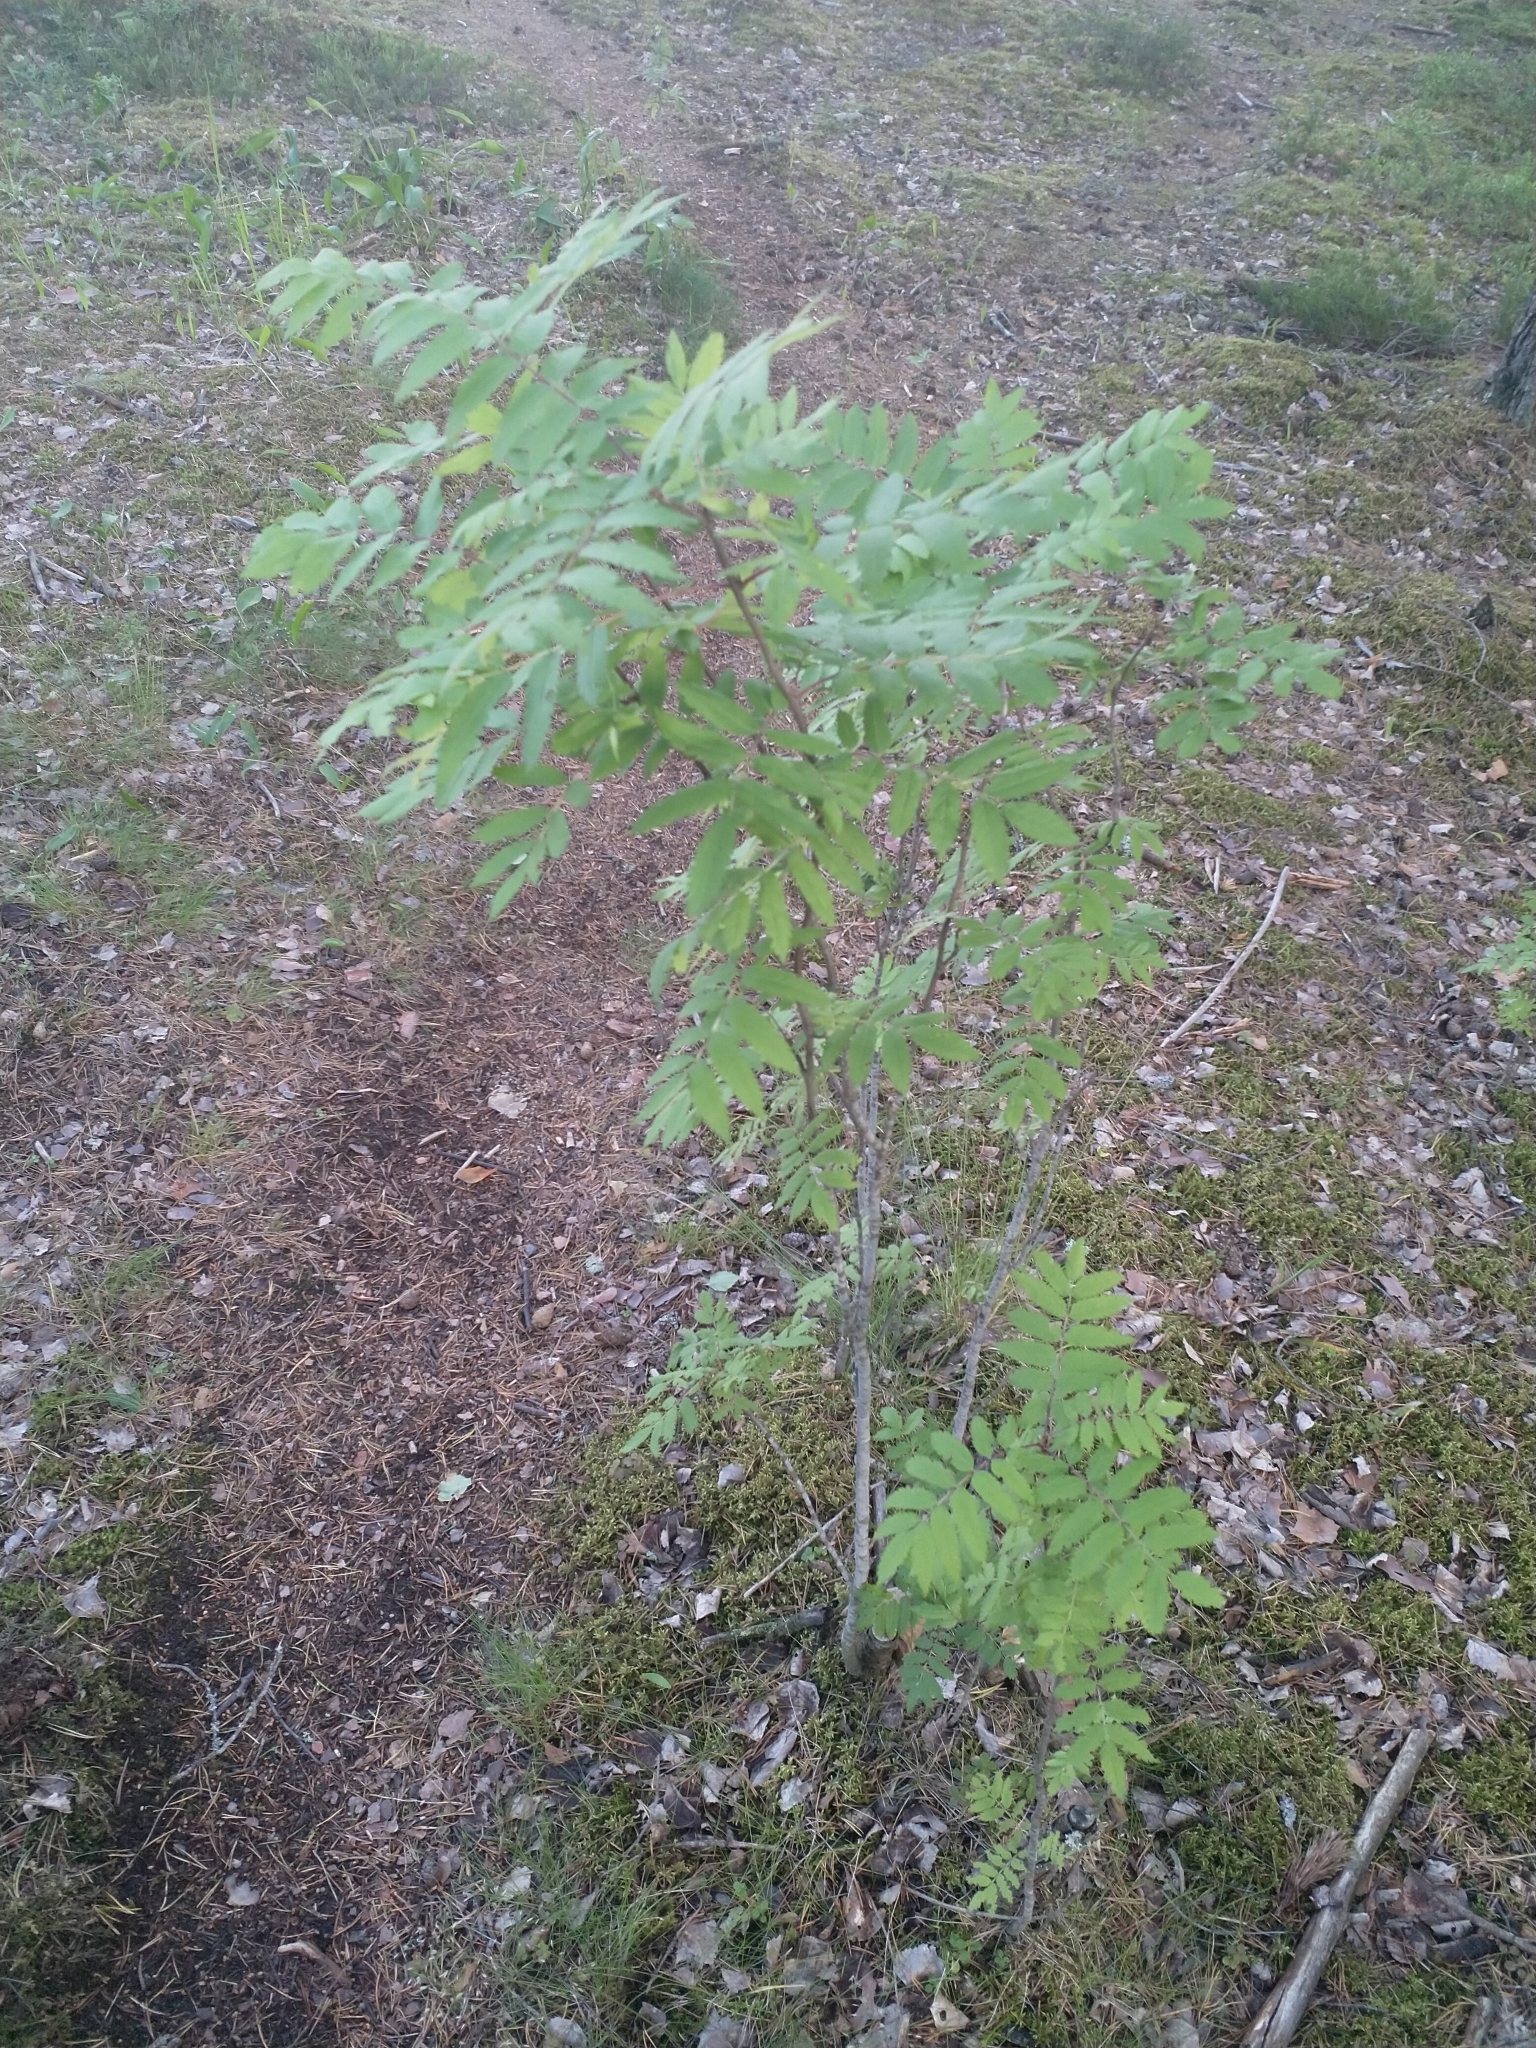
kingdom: Plantae
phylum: Tracheophyta
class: Magnoliopsida
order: Rosales
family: Rosaceae
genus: Sorbus
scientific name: Sorbus aucuparia
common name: Rowan
